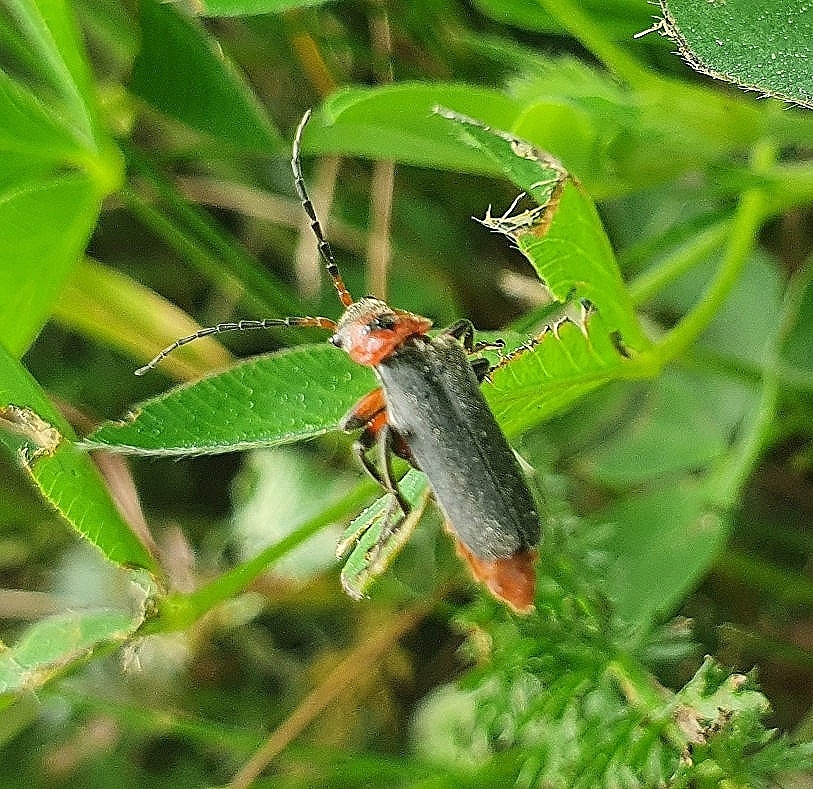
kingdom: Animalia
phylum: Arthropoda
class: Insecta
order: Coleoptera
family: Cantharidae
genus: Cantharis
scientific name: Cantharis rustica
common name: Soldier beetle
